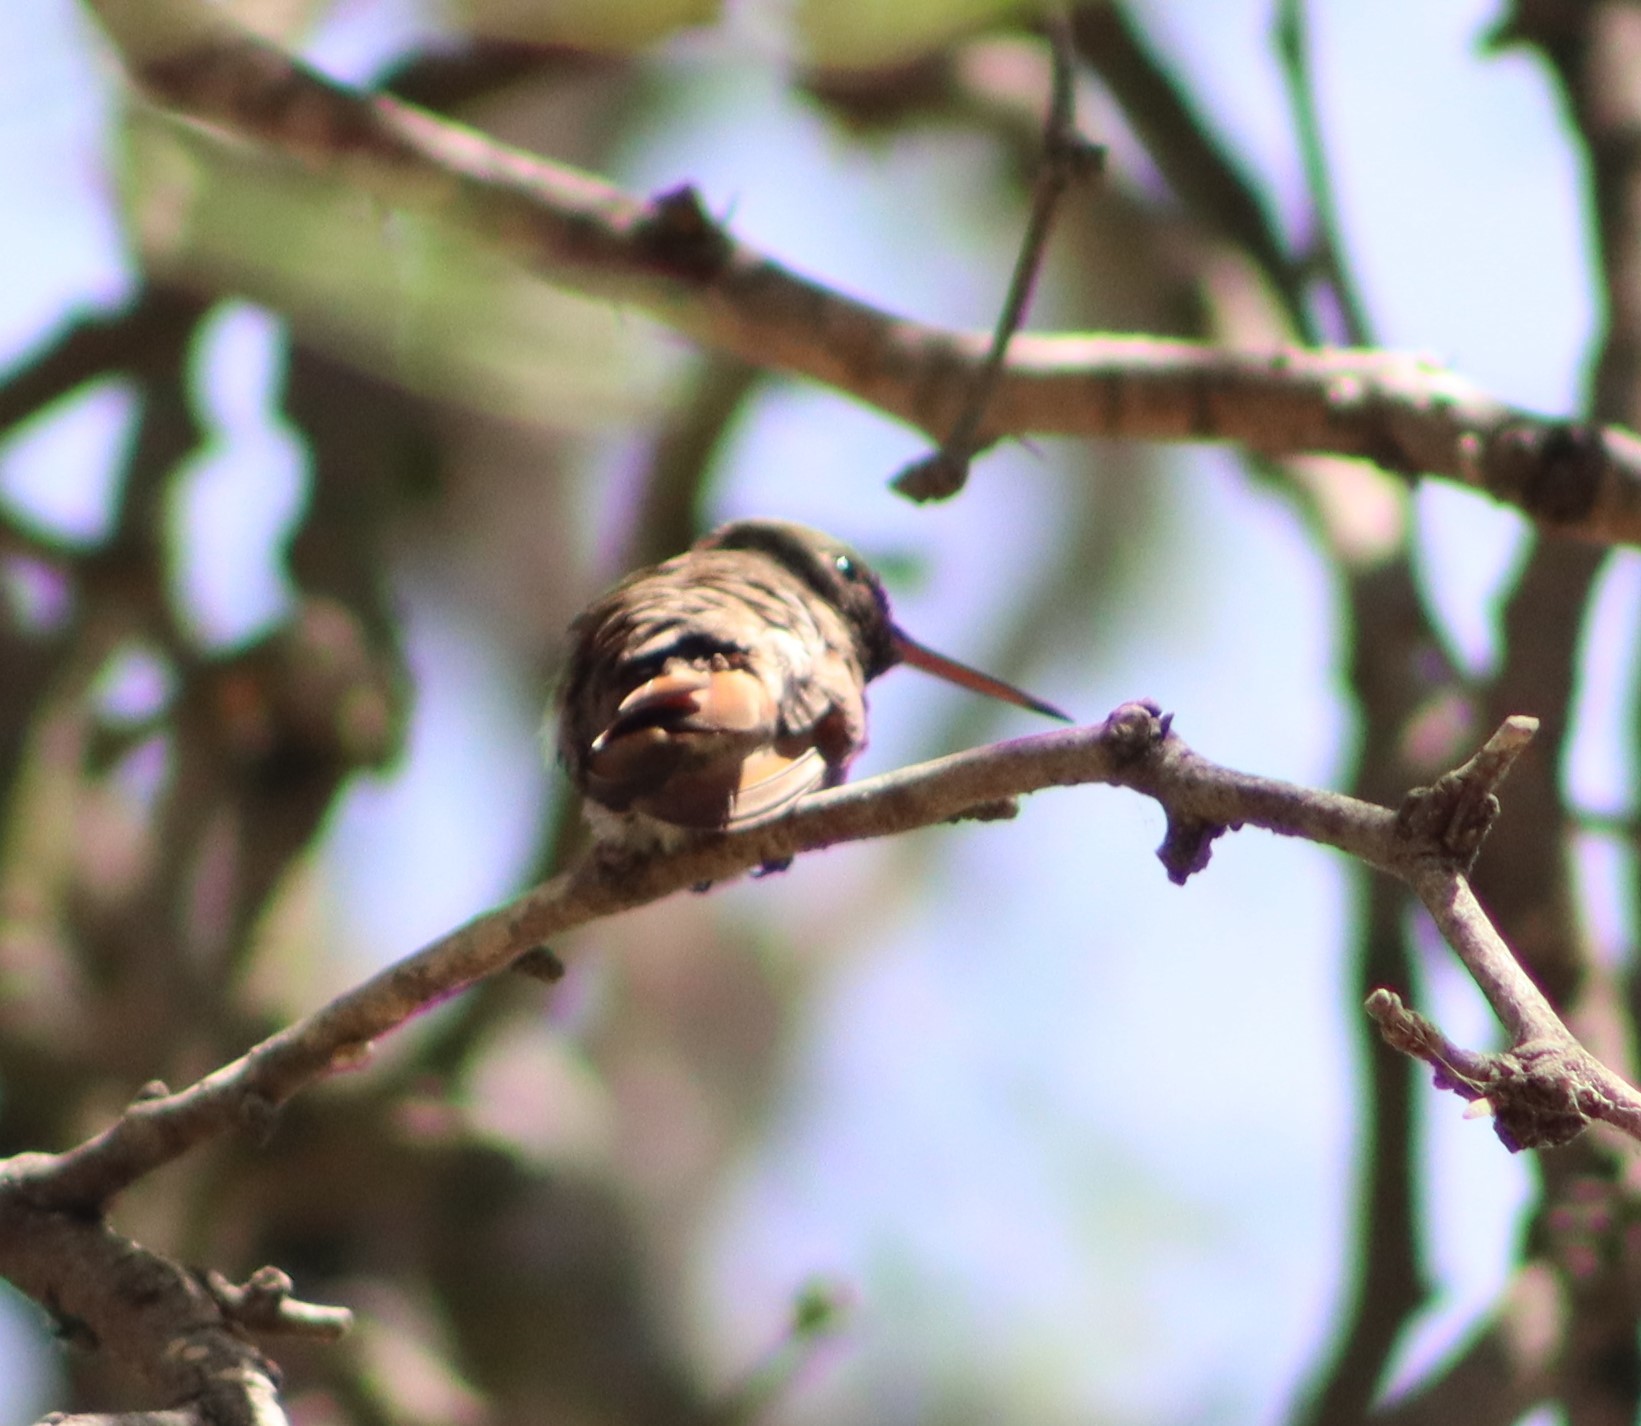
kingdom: Animalia
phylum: Chordata
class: Aves
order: Apodiformes
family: Trochilidae
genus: Cynanthus
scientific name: Cynanthus latirostris
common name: Broad-billed hummingbird
